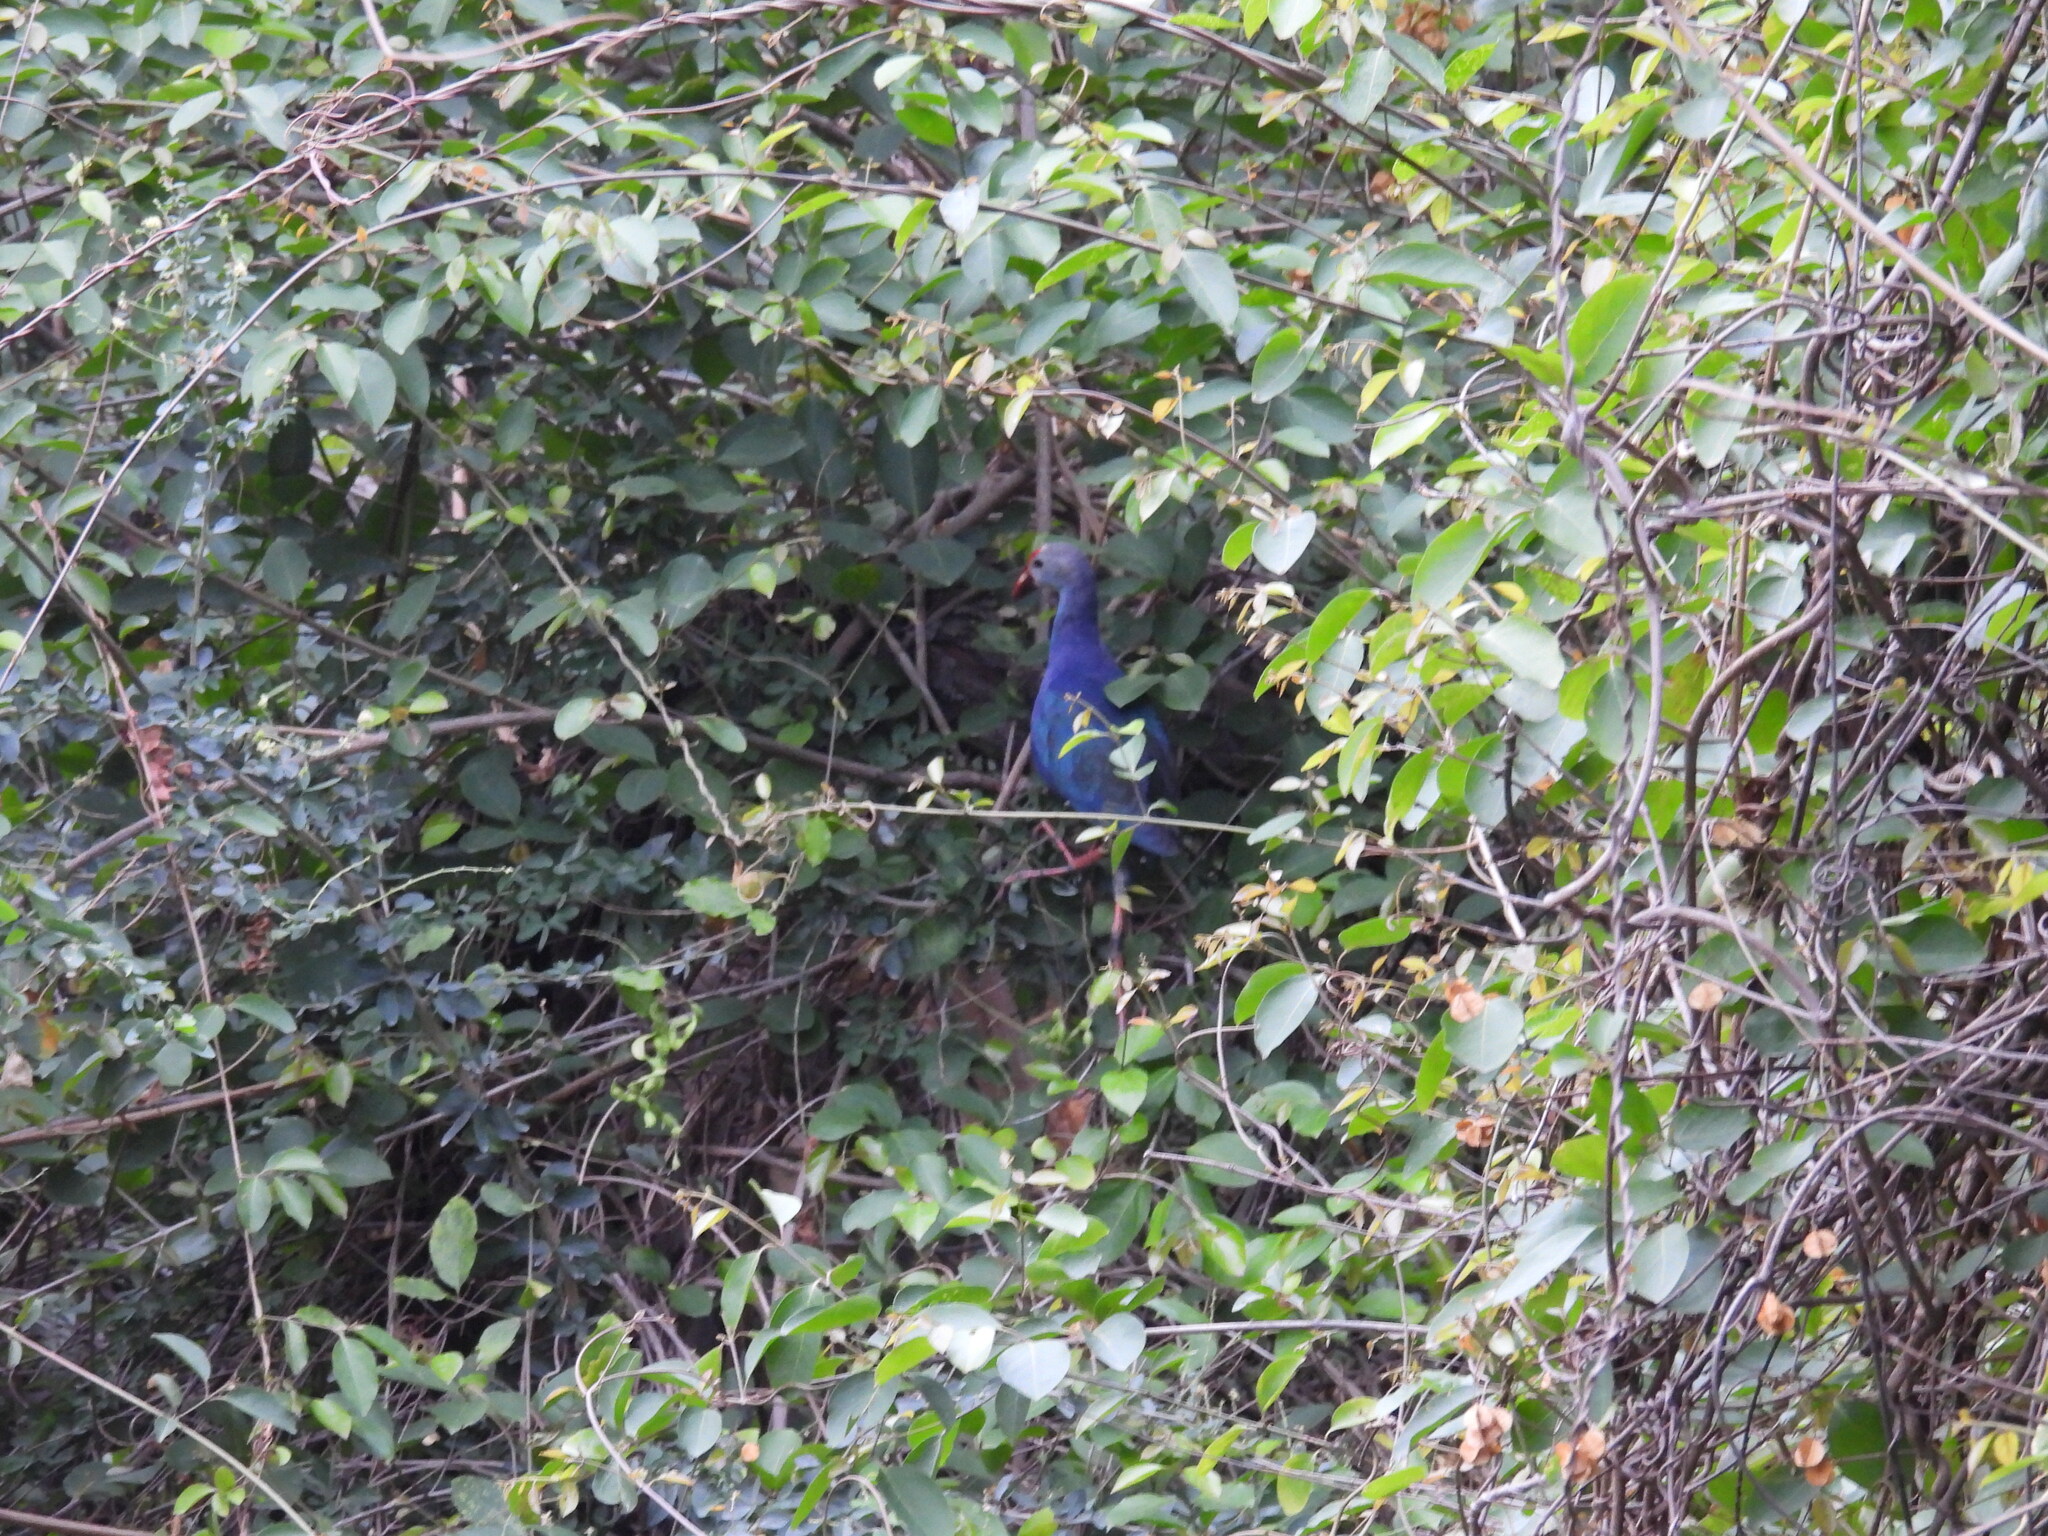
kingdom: Animalia
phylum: Chordata
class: Aves
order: Gruiformes
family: Rallidae
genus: Porphyrio
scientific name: Porphyrio porphyrio
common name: Purple swamphen
